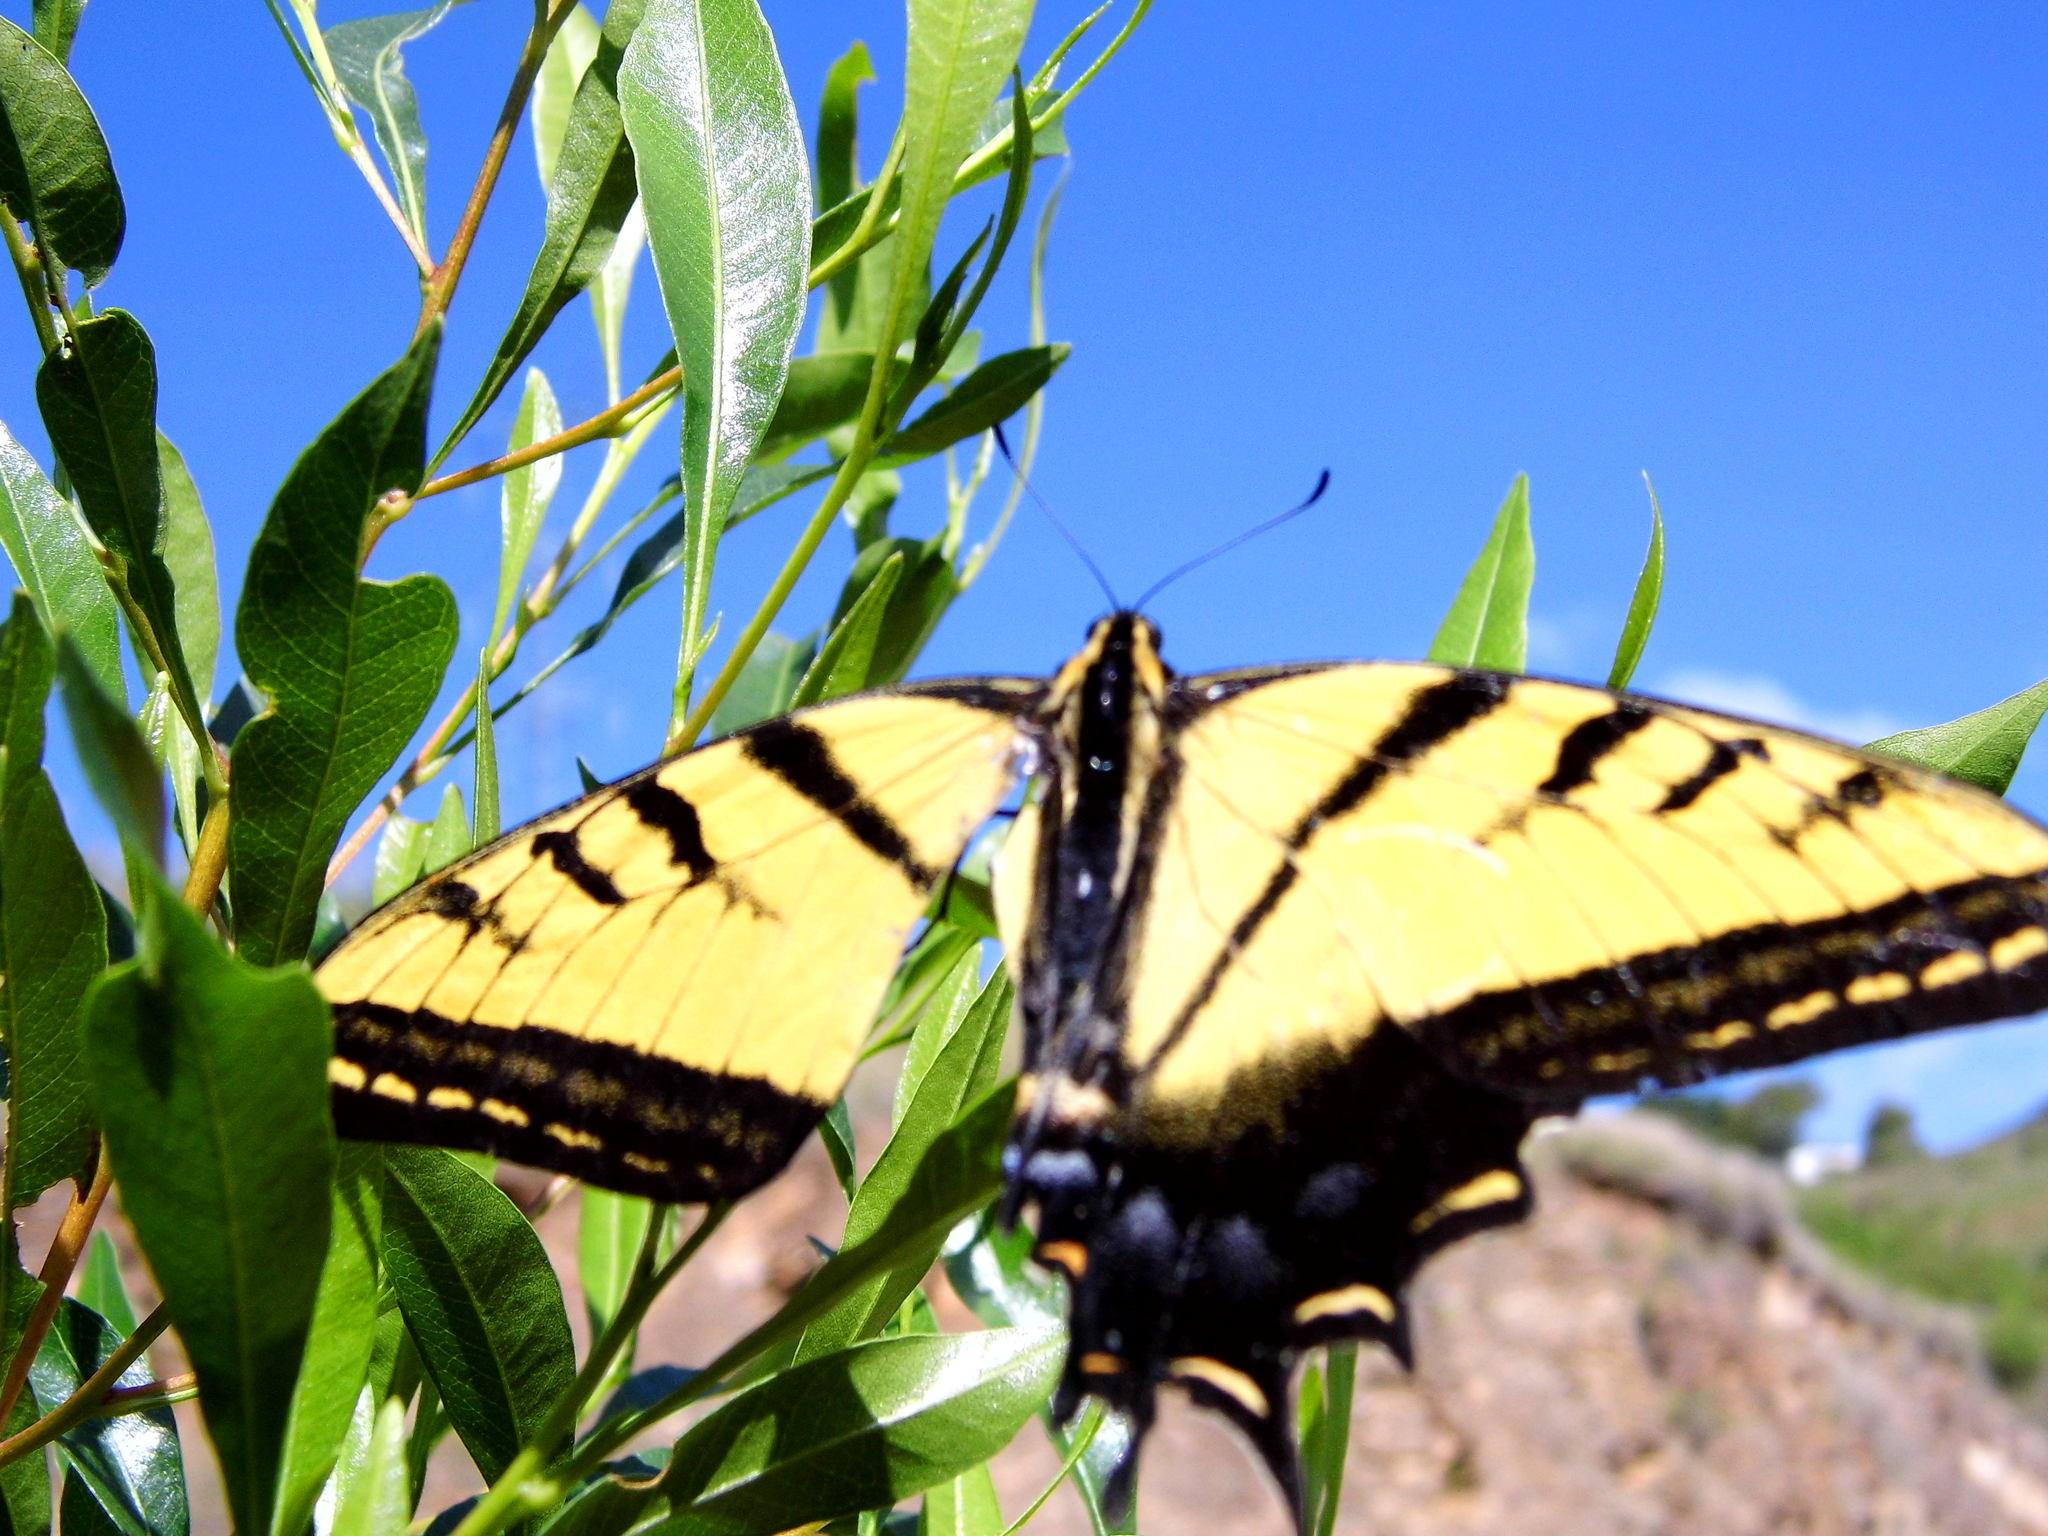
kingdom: Animalia
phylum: Arthropoda
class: Insecta
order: Lepidoptera
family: Papilionidae
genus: Papilio
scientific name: Papilio multicaudata
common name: Two-tailed tiger swallowtail
